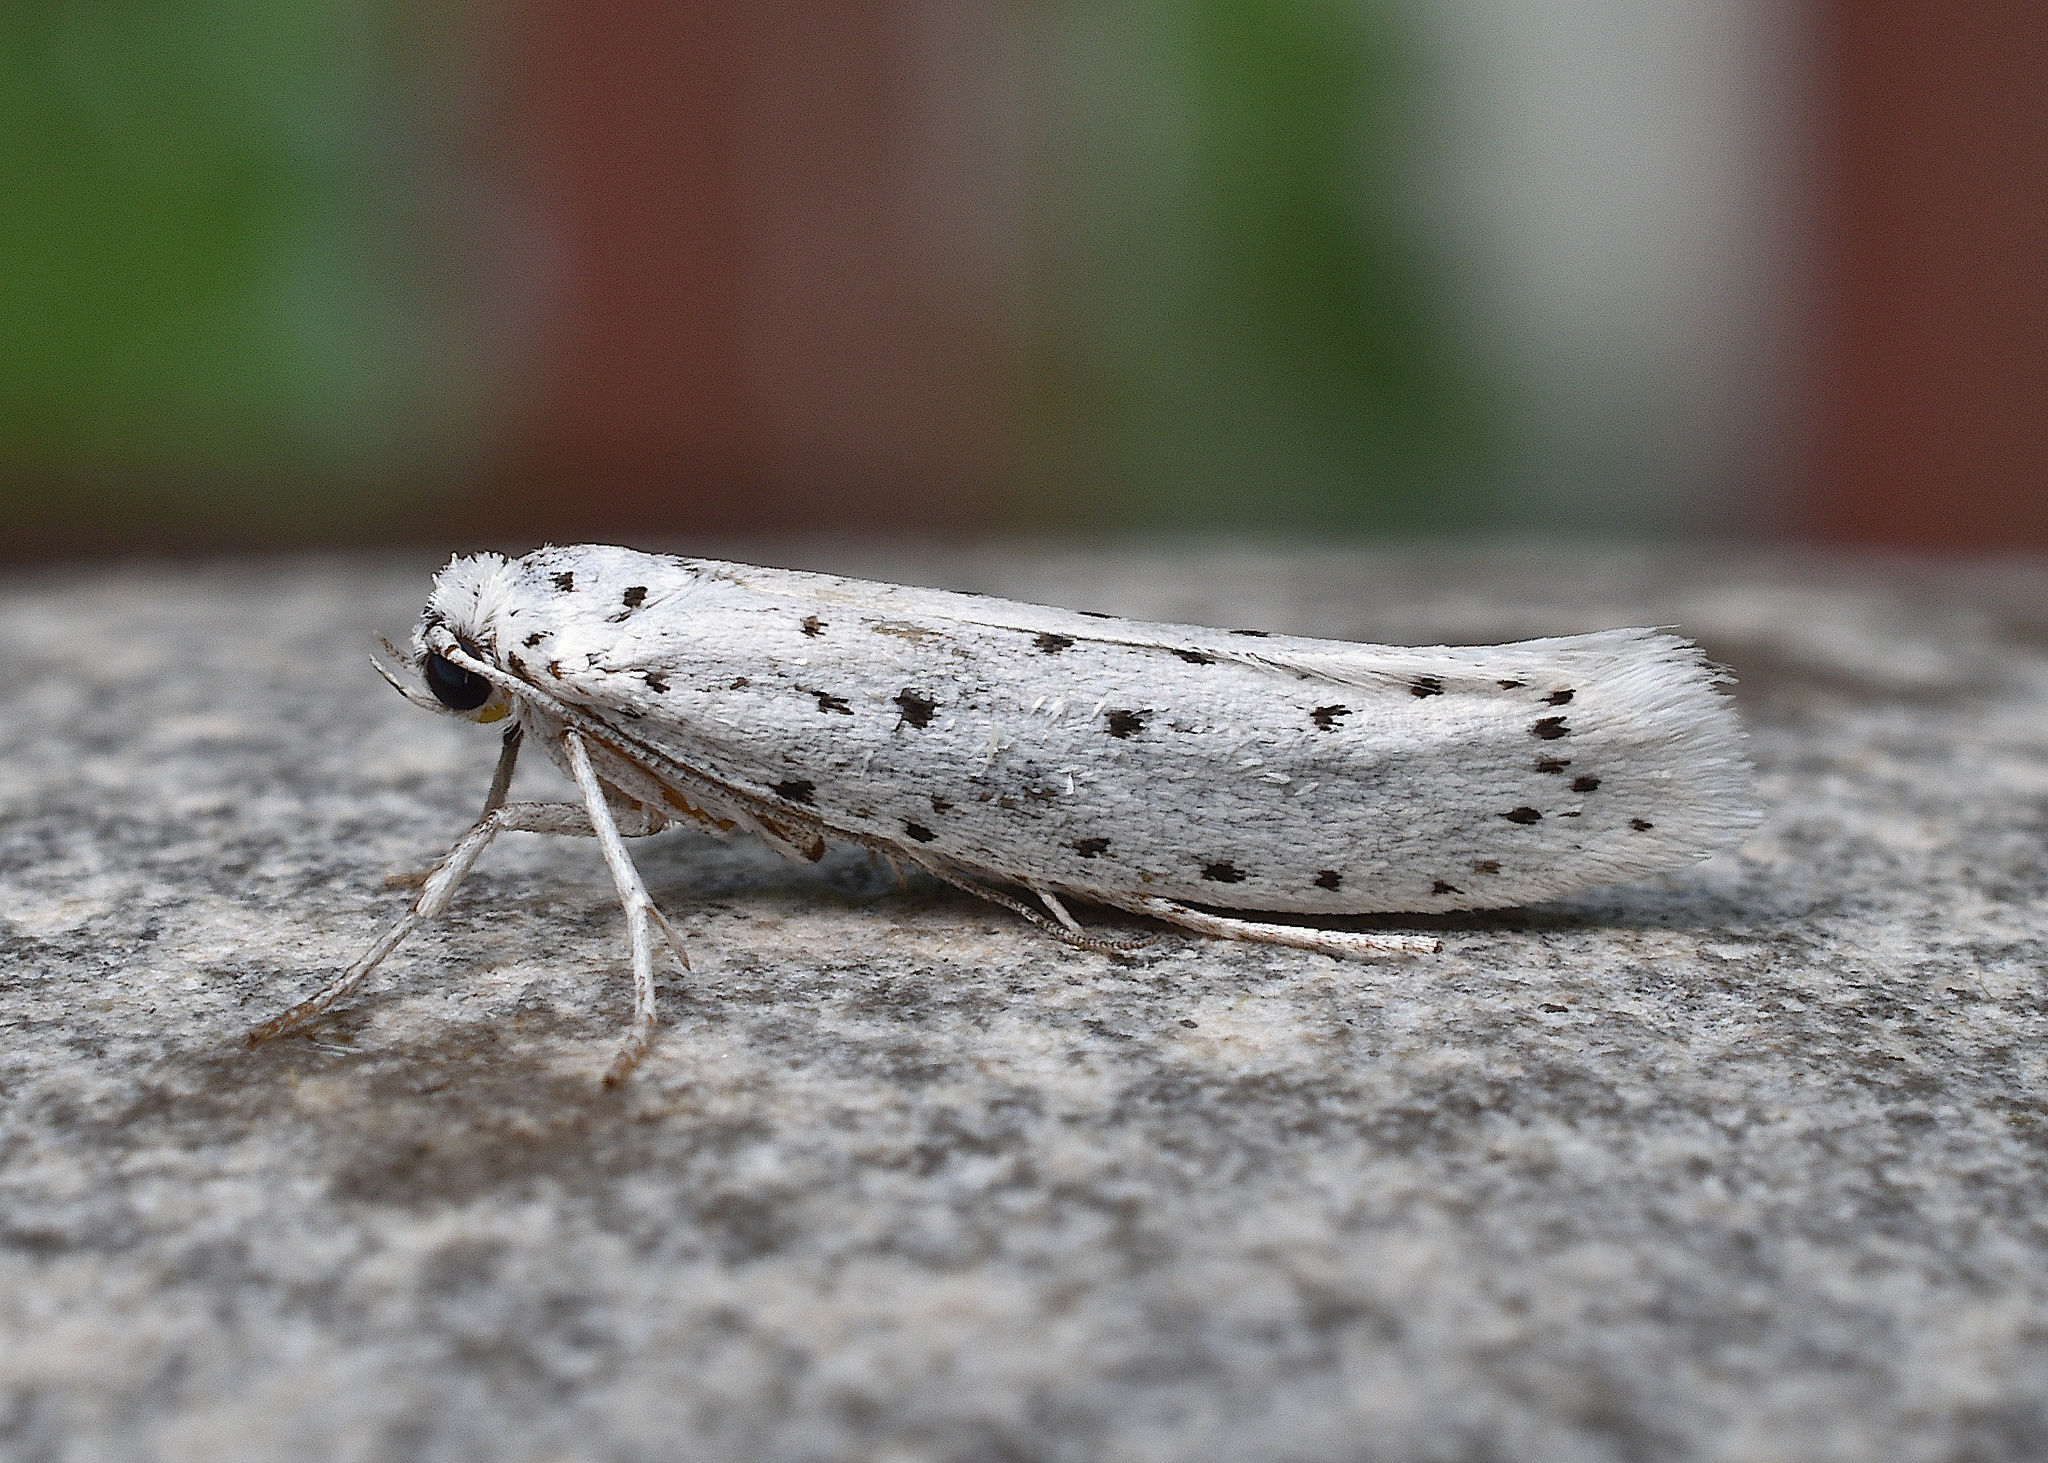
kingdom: Animalia
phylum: Arthropoda
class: Insecta
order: Lepidoptera
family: Yponomeutidae
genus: Yponomeuta
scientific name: Yponomeuta cagnagellus
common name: Spindle ermine
